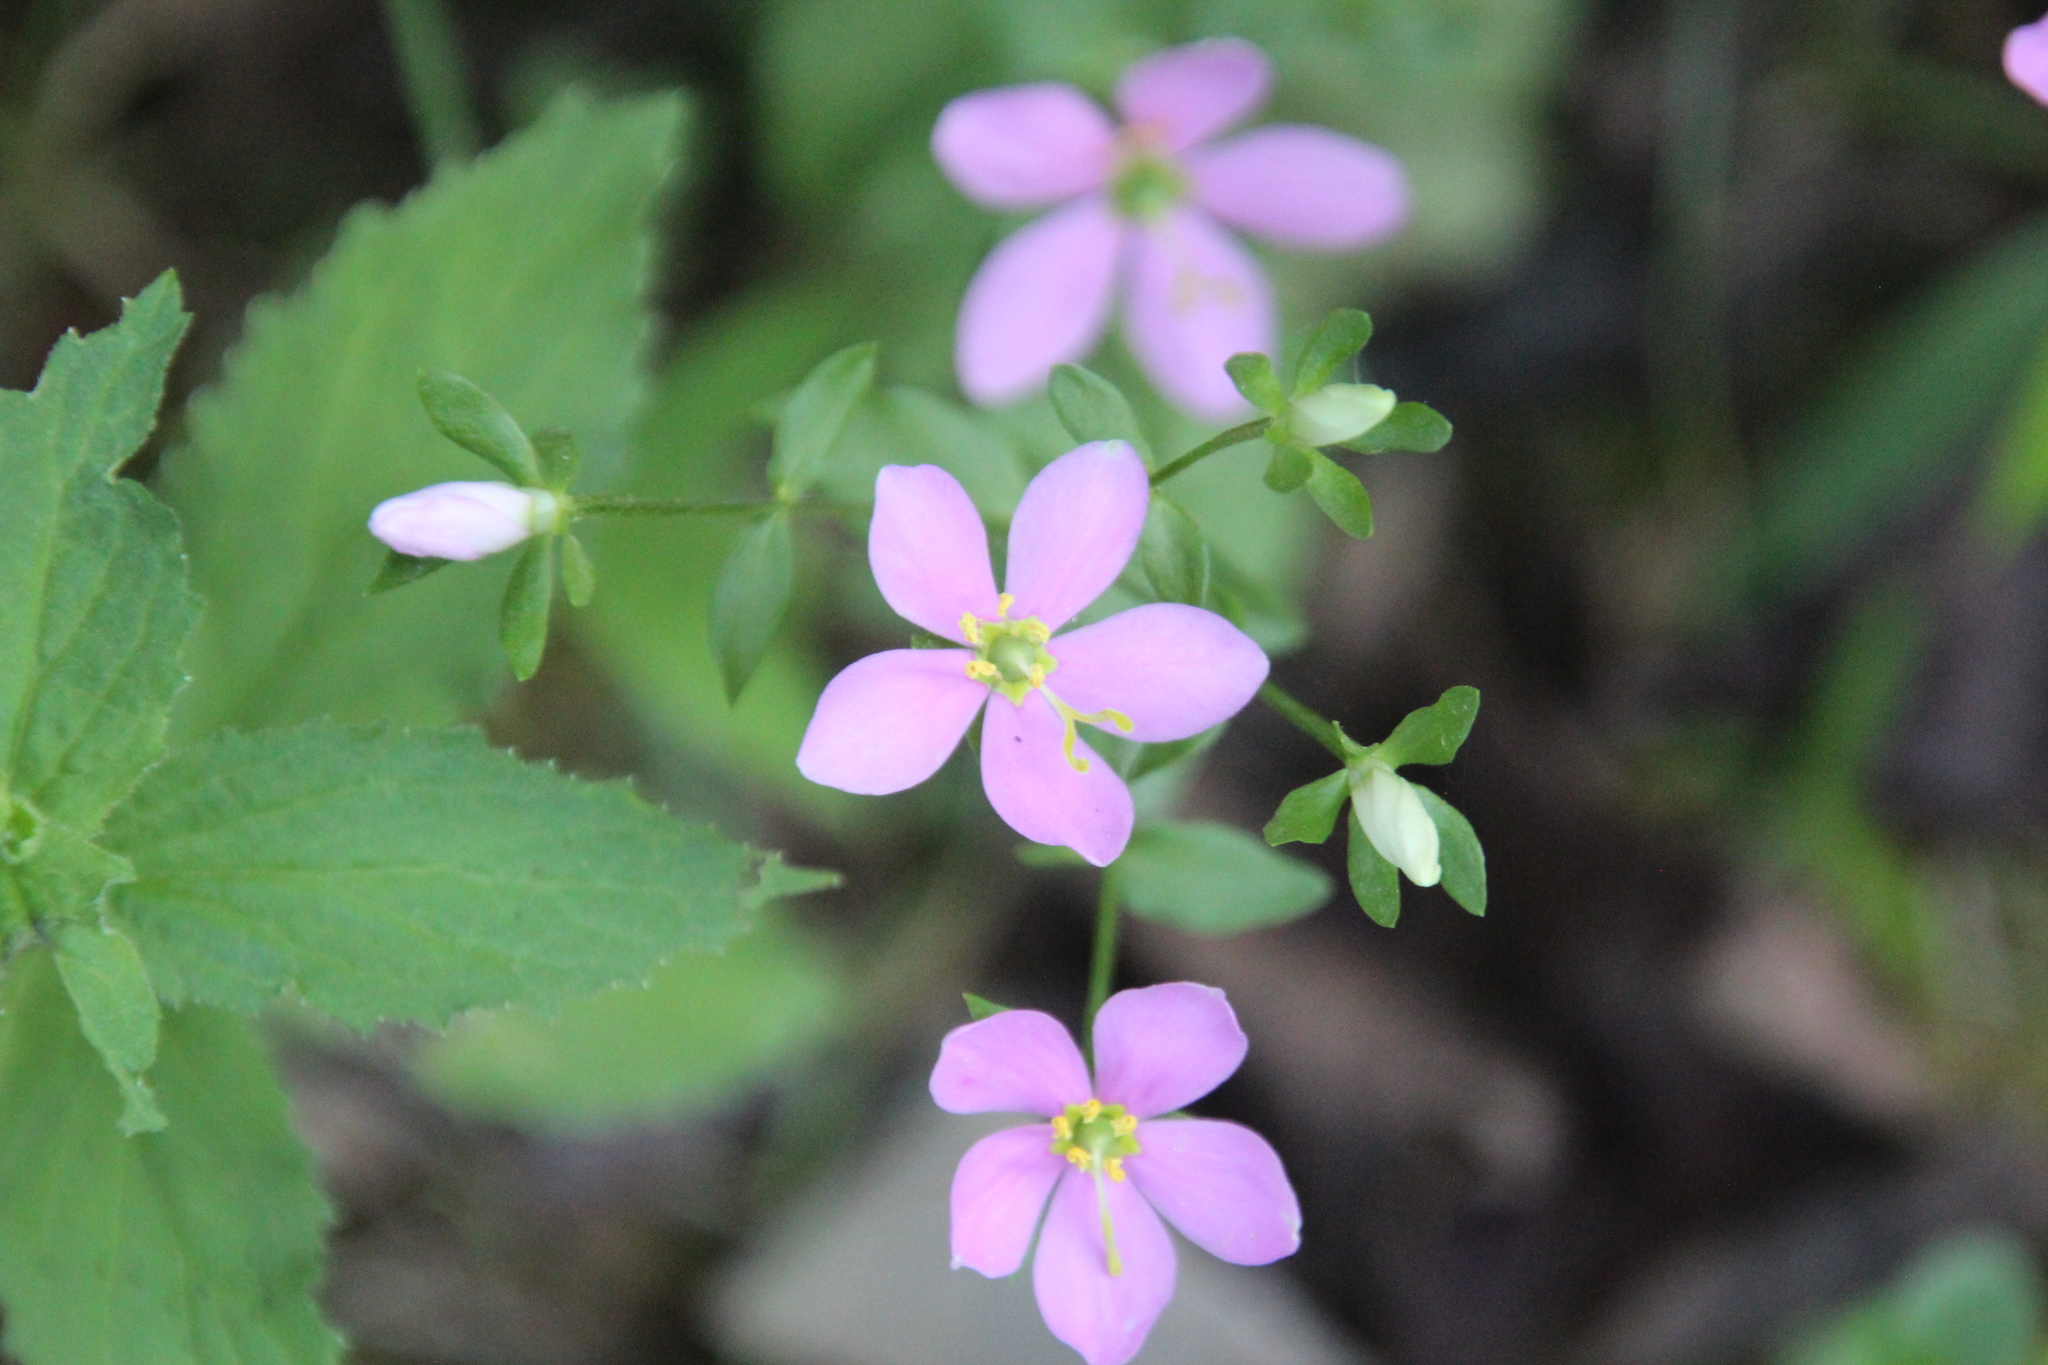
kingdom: Plantae
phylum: Tracheophyta
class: Magnoliopsida
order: Gentianales
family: Gentianaceae
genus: Sabatia
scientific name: Sabatia angularis
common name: Rose-pink
